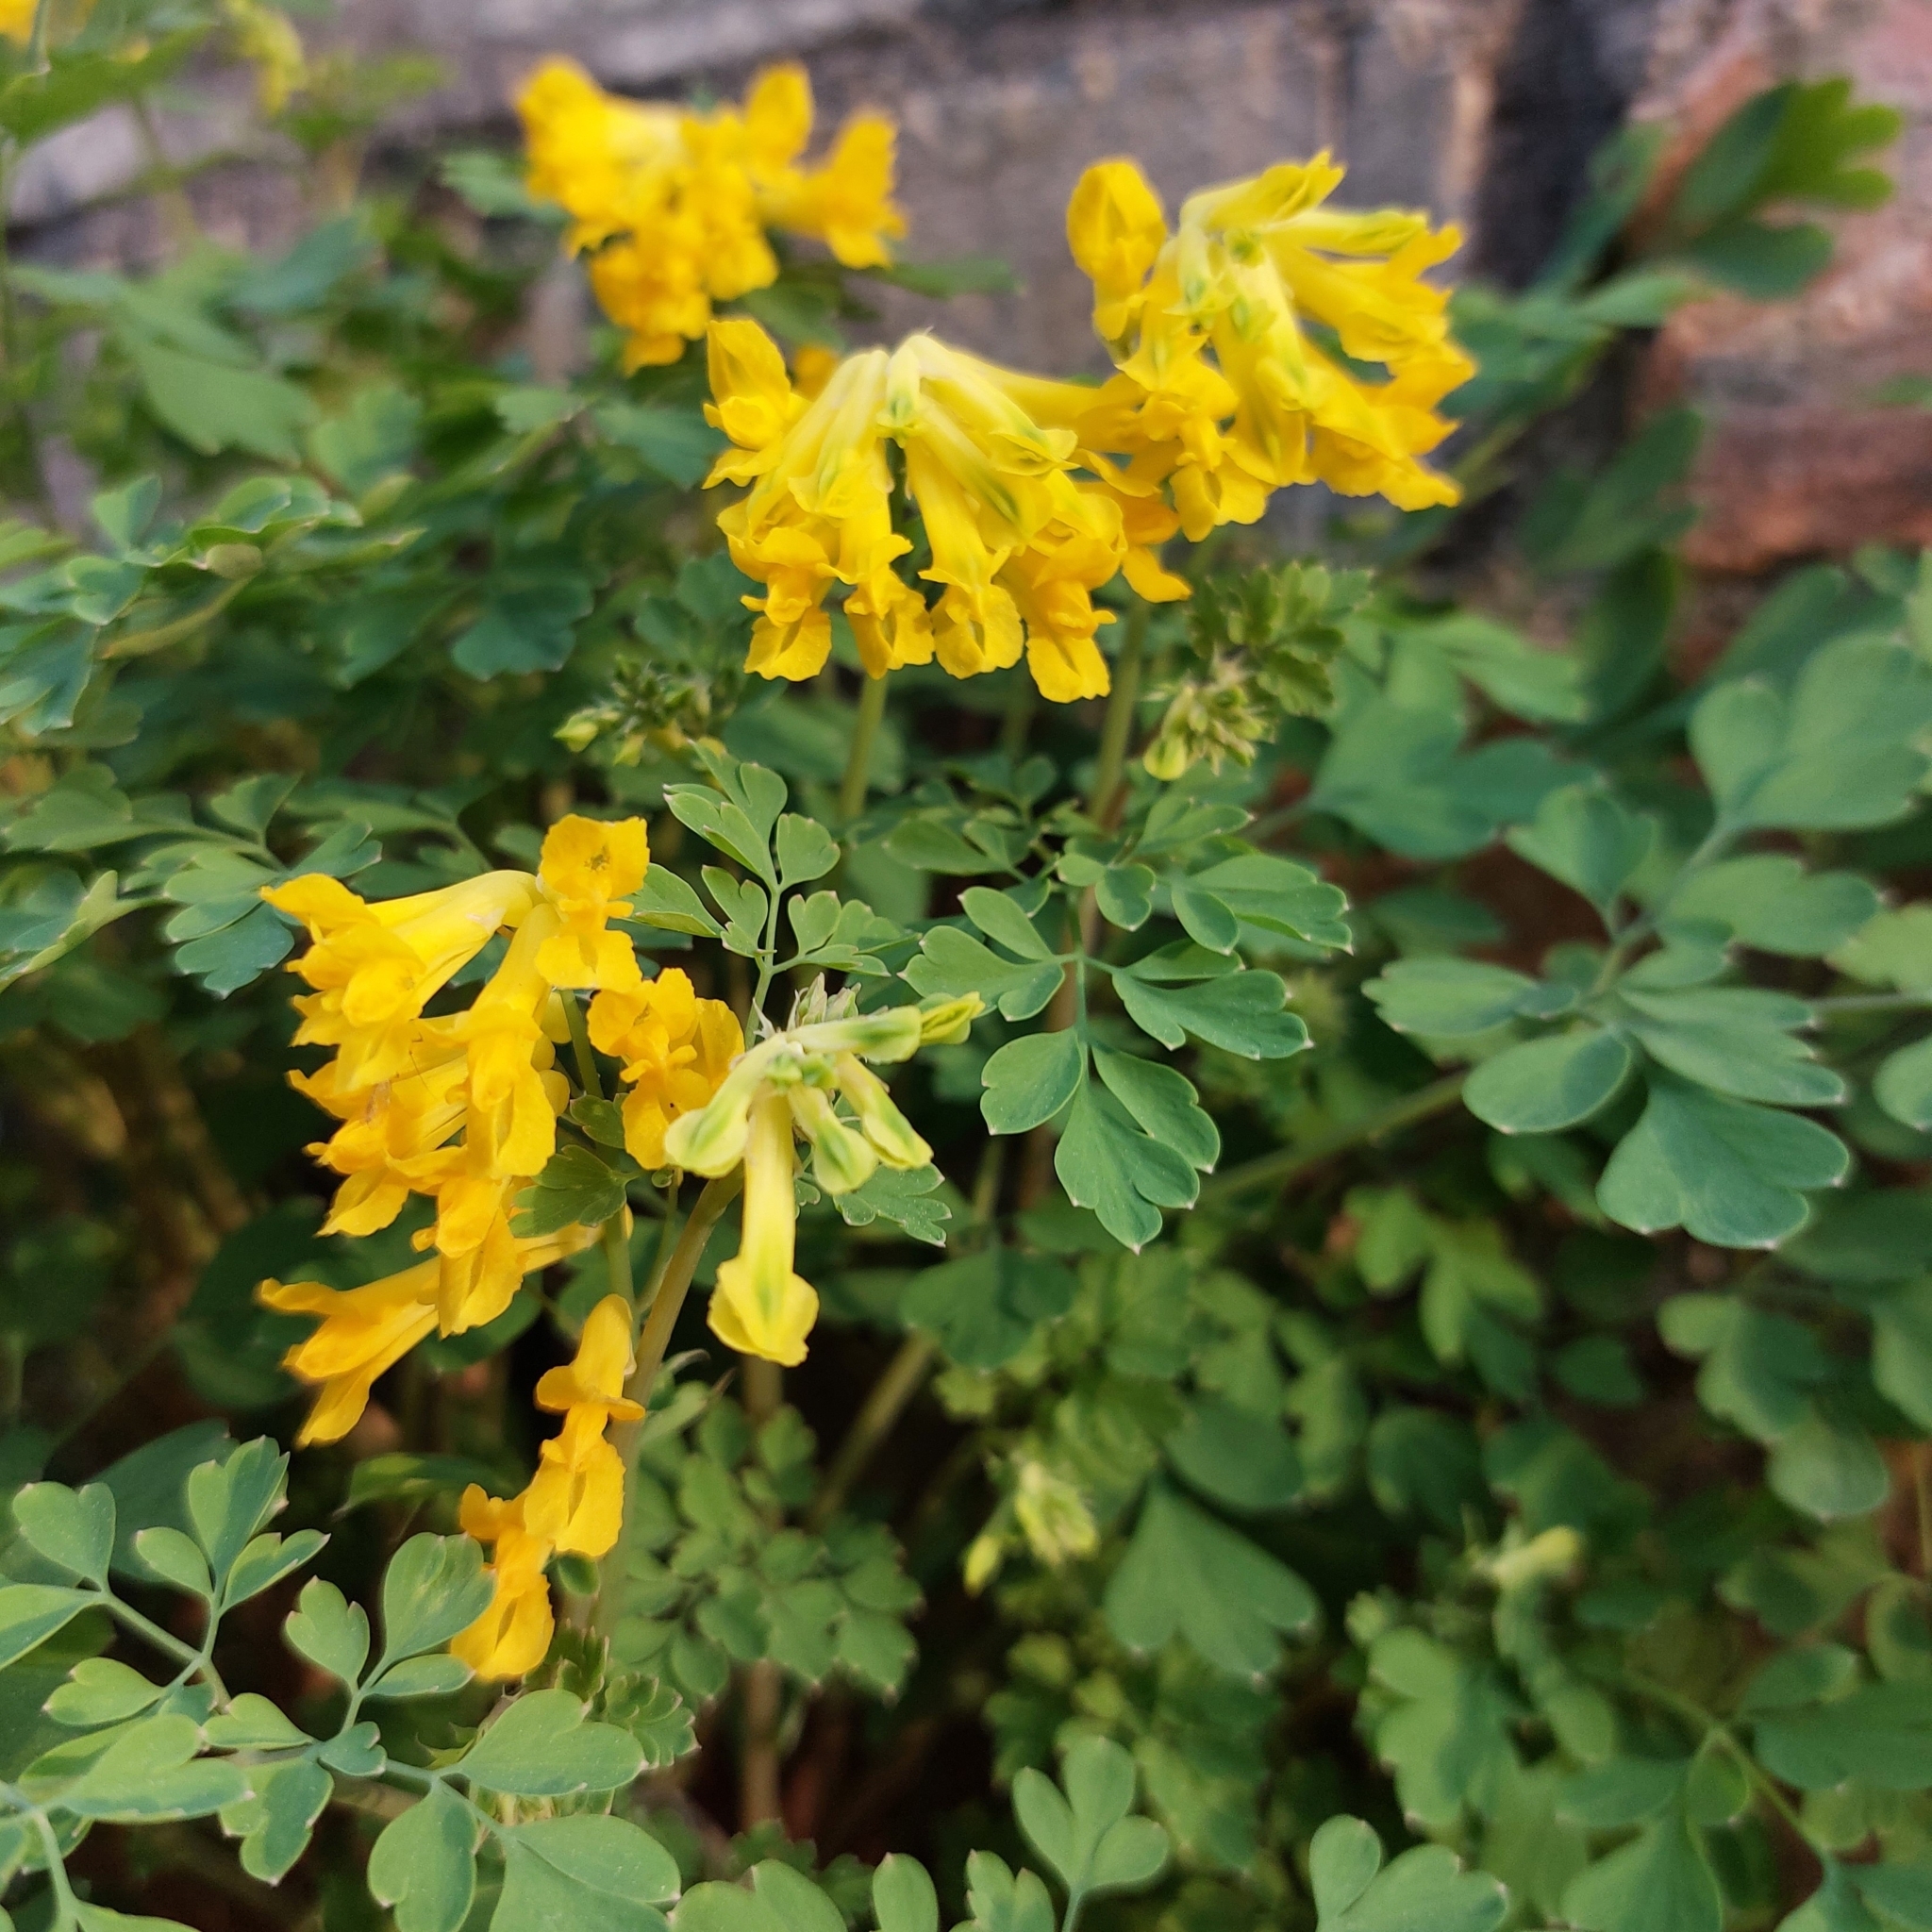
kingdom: Plantae
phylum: Tracheophyta
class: Magnoliopsida
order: Ranunculales
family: Papaveraceae
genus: Pseudofumaria
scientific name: Pseudofumaria lutea
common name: Yellow corydalis
